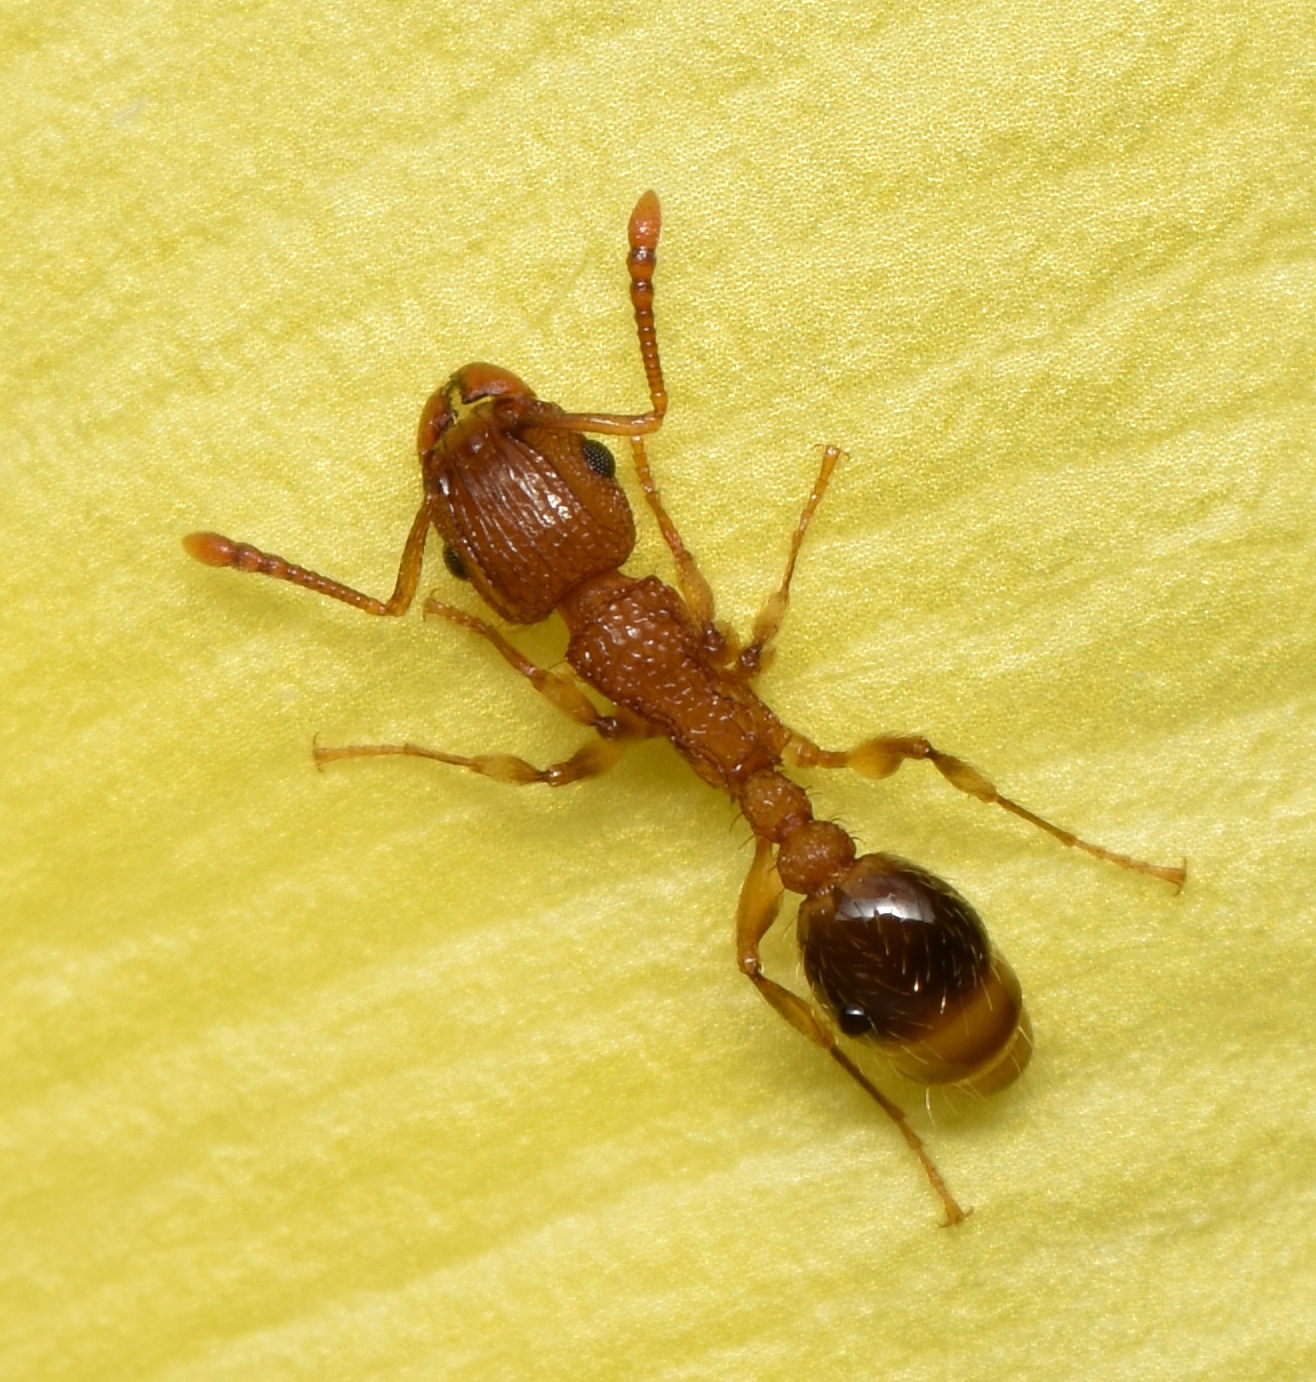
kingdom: Animalia
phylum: Arthropoda
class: Insecta
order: Hymenoptera
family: Formicidae
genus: Tetramorium
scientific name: Tetramorium bicarinatum
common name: Guinea ant
